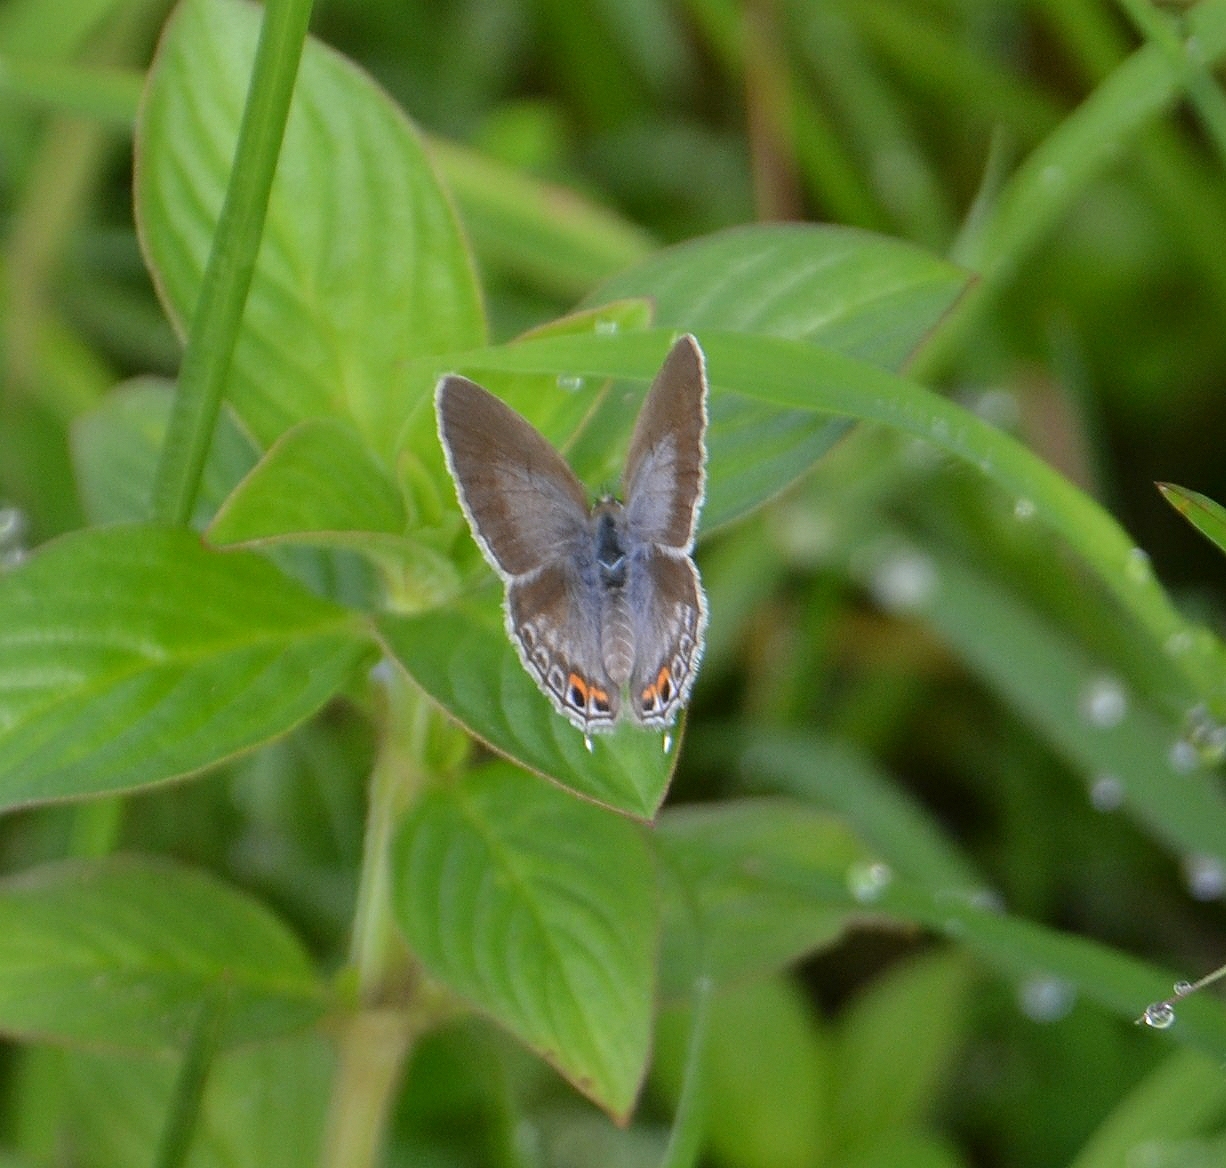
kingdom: Animalia
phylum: Arthropoda
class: Insecta
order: Lepidoptera
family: Lycaenidae
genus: Euchrysops
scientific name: Euchrysops cnejus
